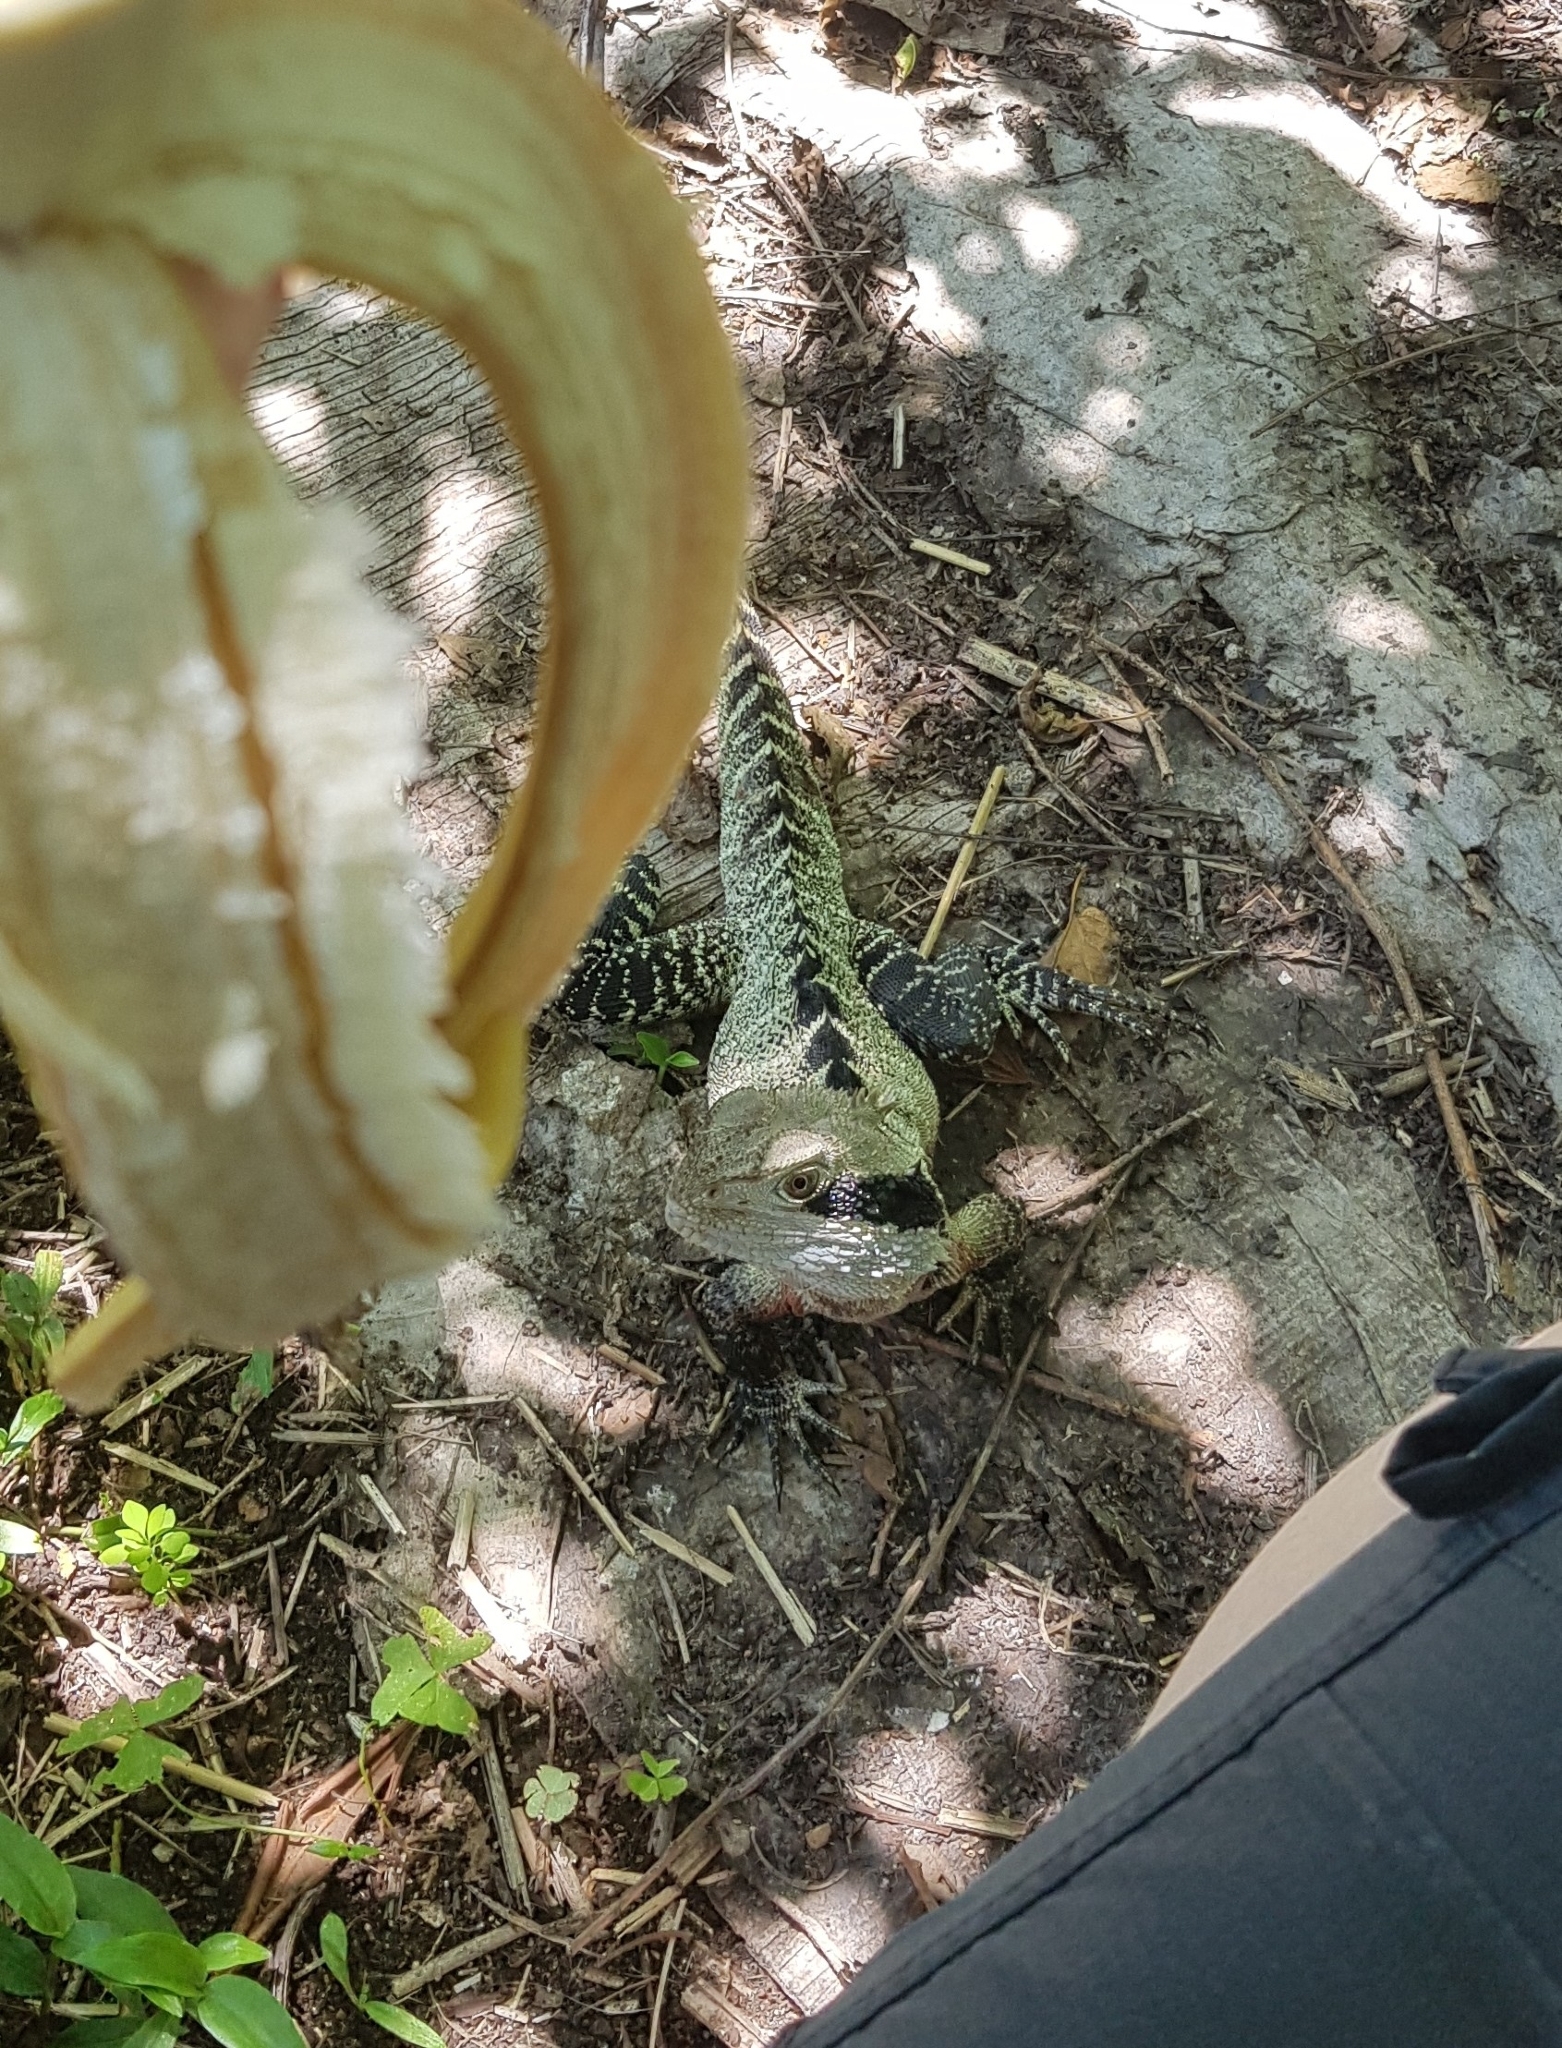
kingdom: Animalia
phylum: Chordata
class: Squamata
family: Agamidae
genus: Intellagama
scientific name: Intellagama lesueurii
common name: Eastern water dragon
